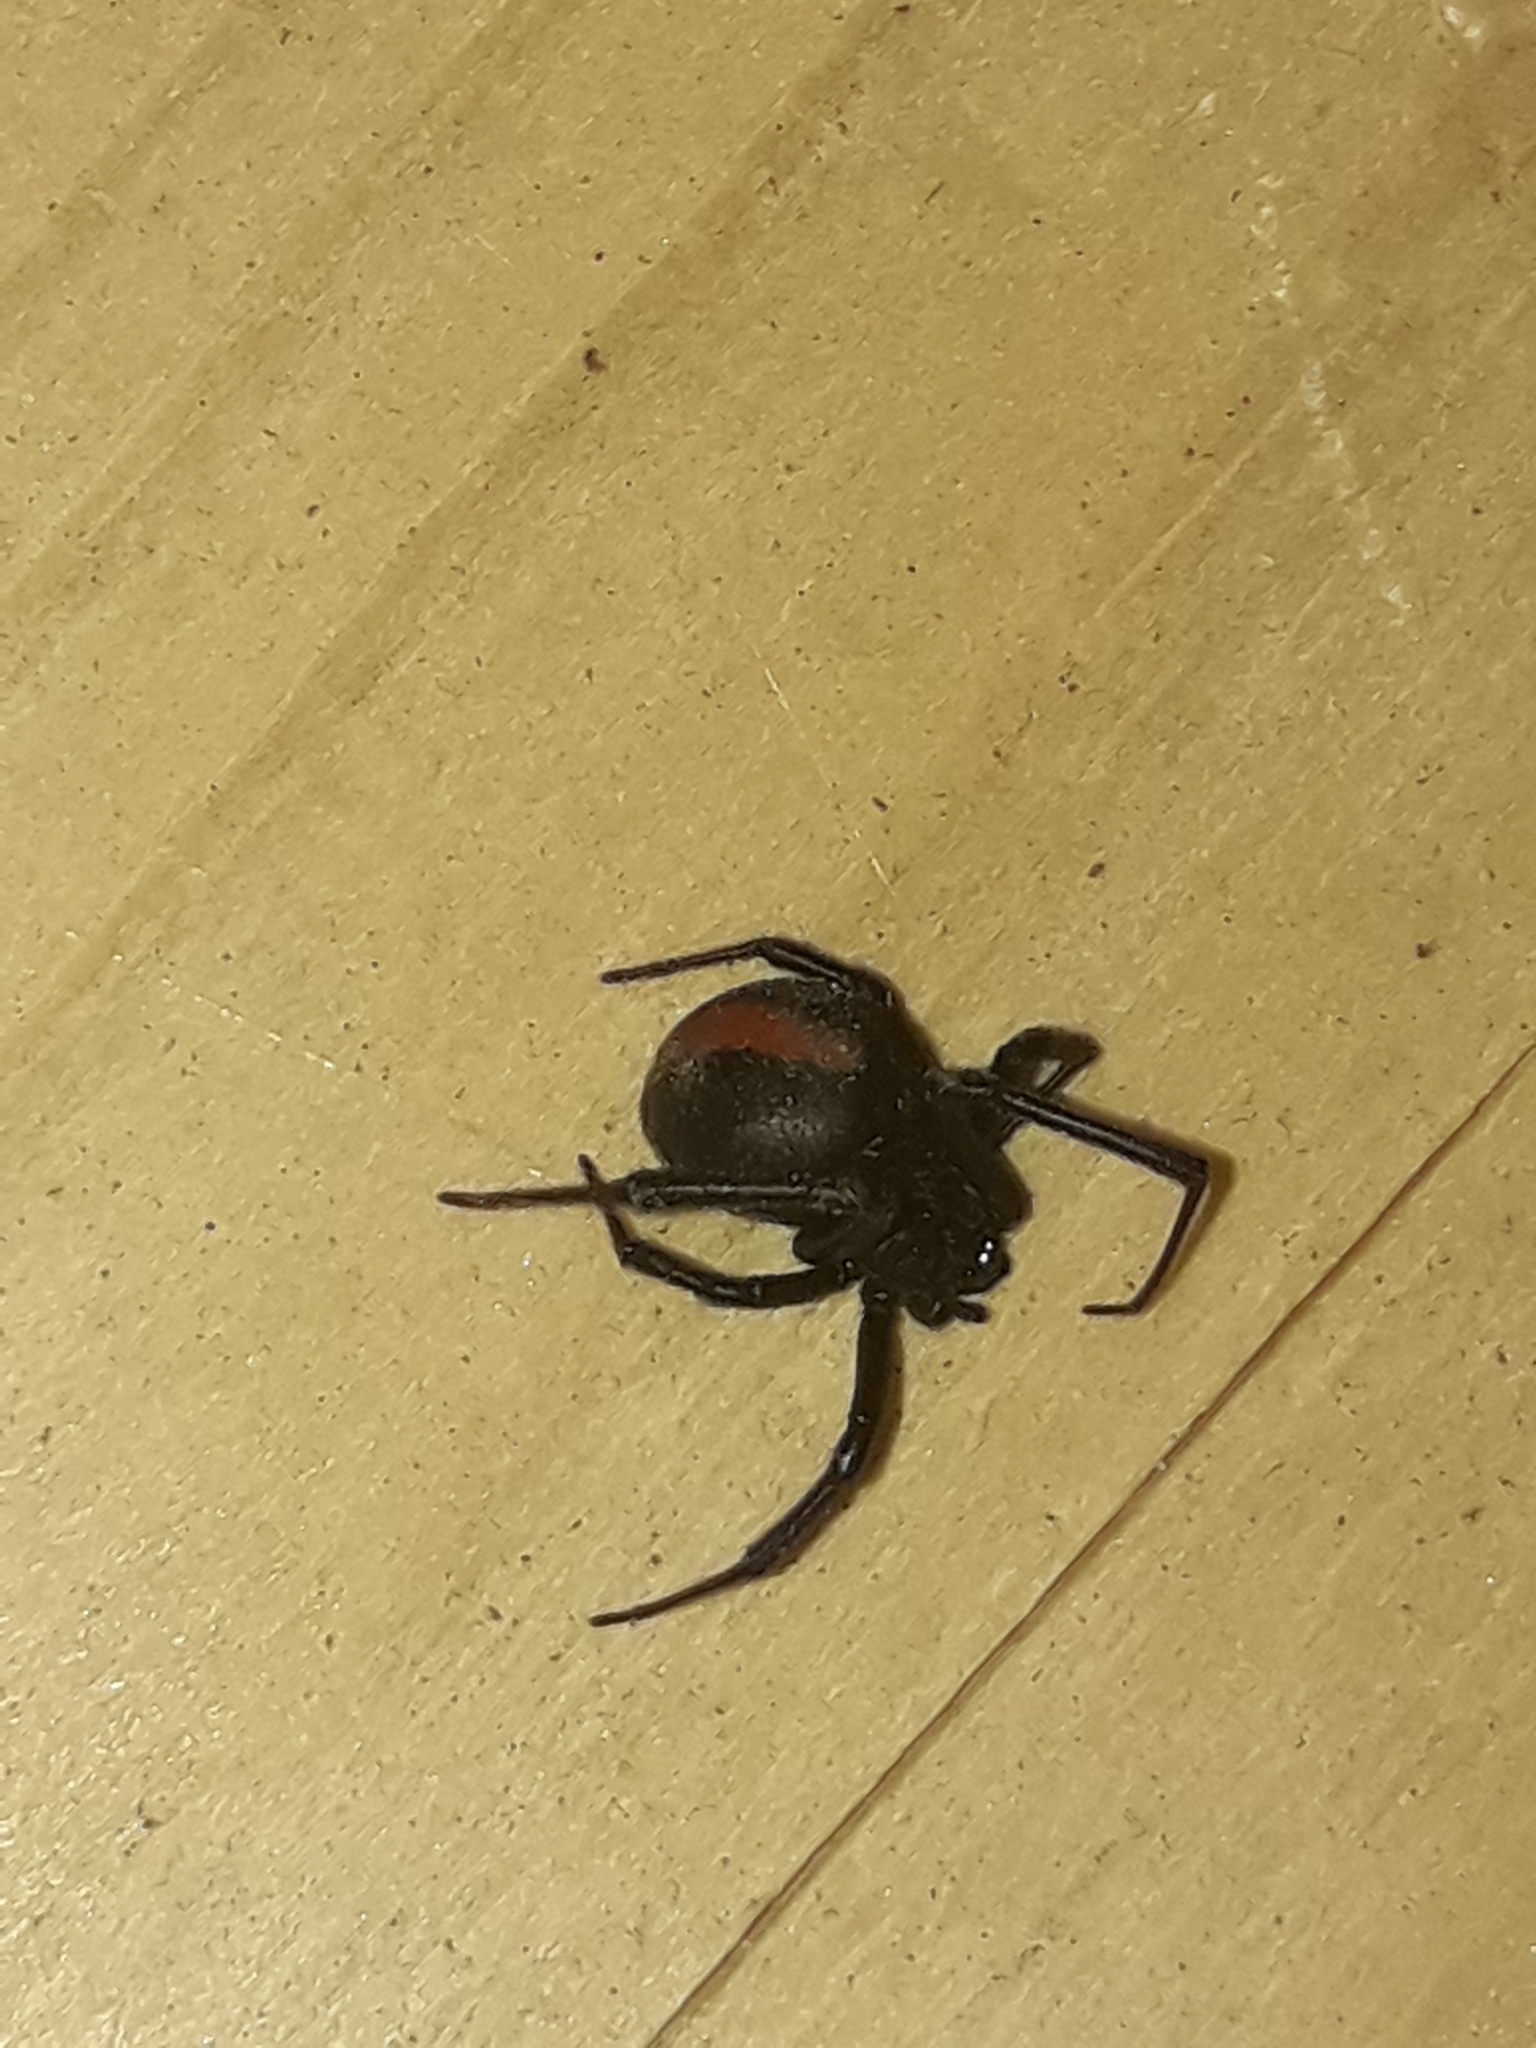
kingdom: Animalia
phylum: Arthropoda
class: Arachnida
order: Araneae
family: Theridiidae
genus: Latrodectus
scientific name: Latrodectus hasselti
